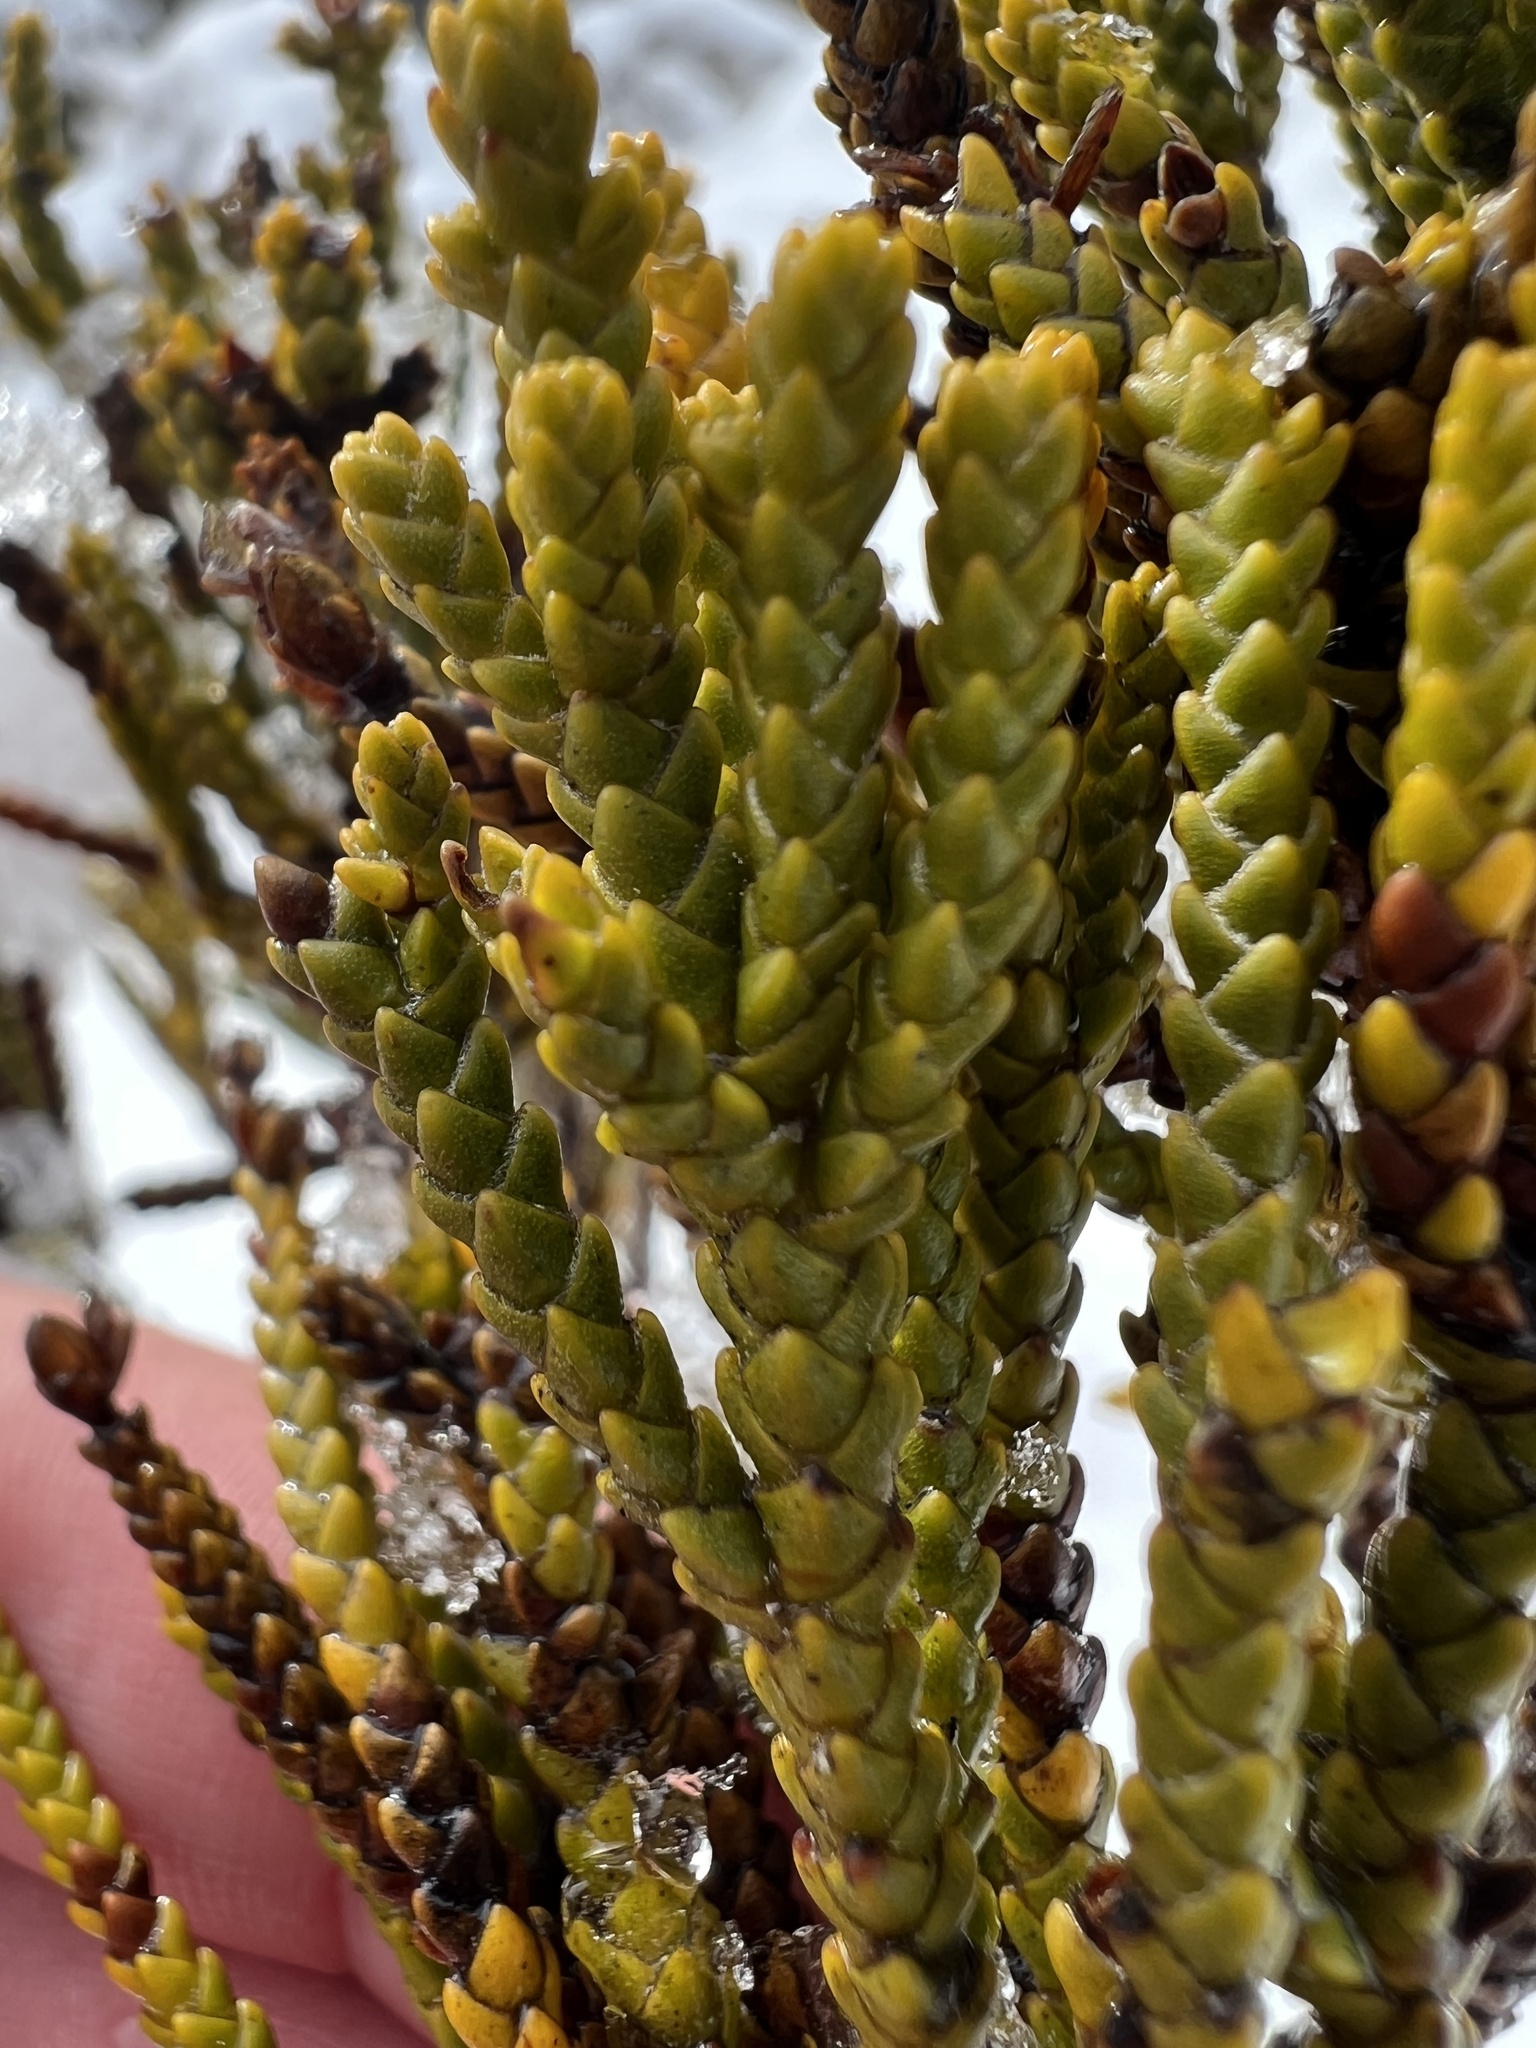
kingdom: Plantae
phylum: Tracheophyta
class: Magnoliopsida
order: Lamiales
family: Plantaginaceae
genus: Veronica
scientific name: Veronica tetragona
